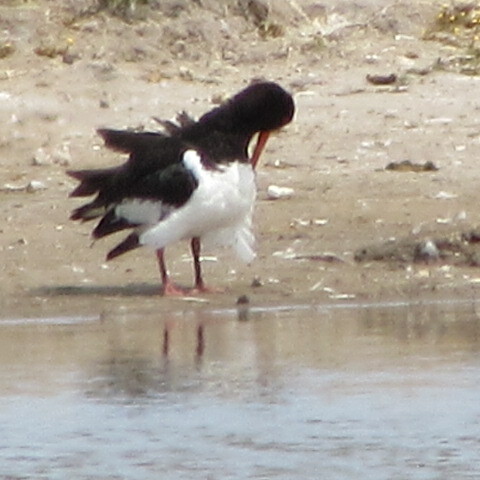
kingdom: Animalia
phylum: Chordata
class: Aves
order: Charadriiformes
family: Haematopodidae
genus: Haematopus
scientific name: Haematopus ostralegus
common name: Eurasian oystercatcher
